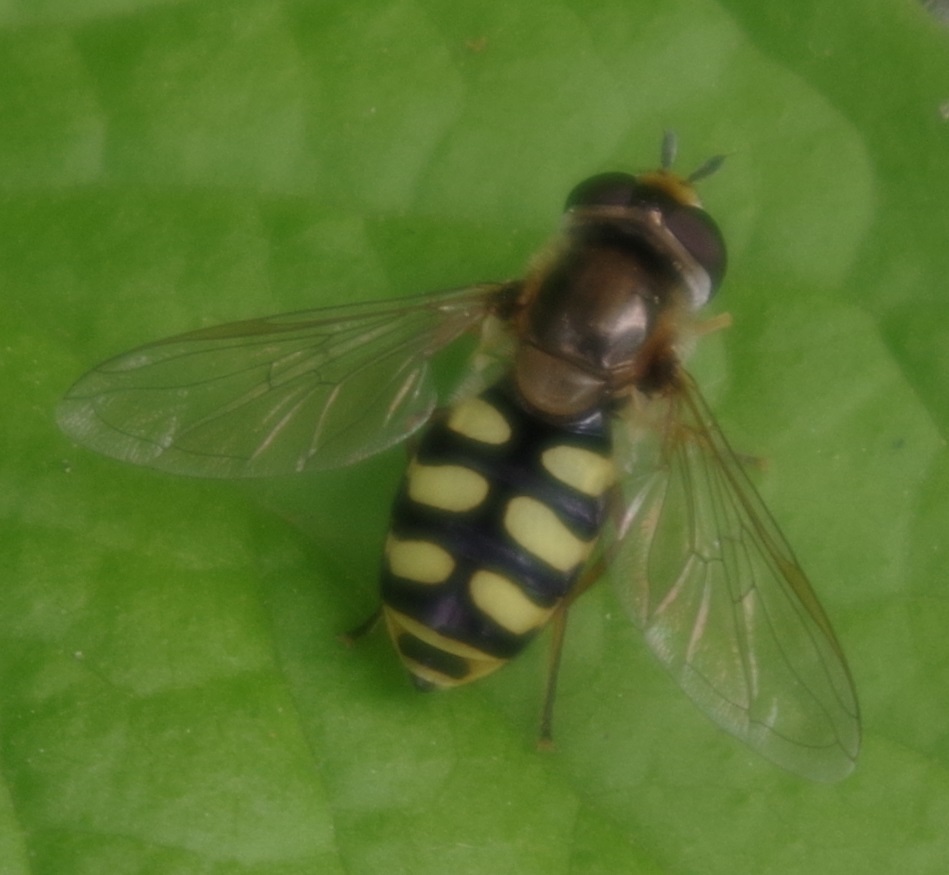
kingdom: Animalia
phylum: Arthropoda
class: Insecta
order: Diptera
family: Syrphidae
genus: Eupeodes
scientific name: Eupeodes corollae
